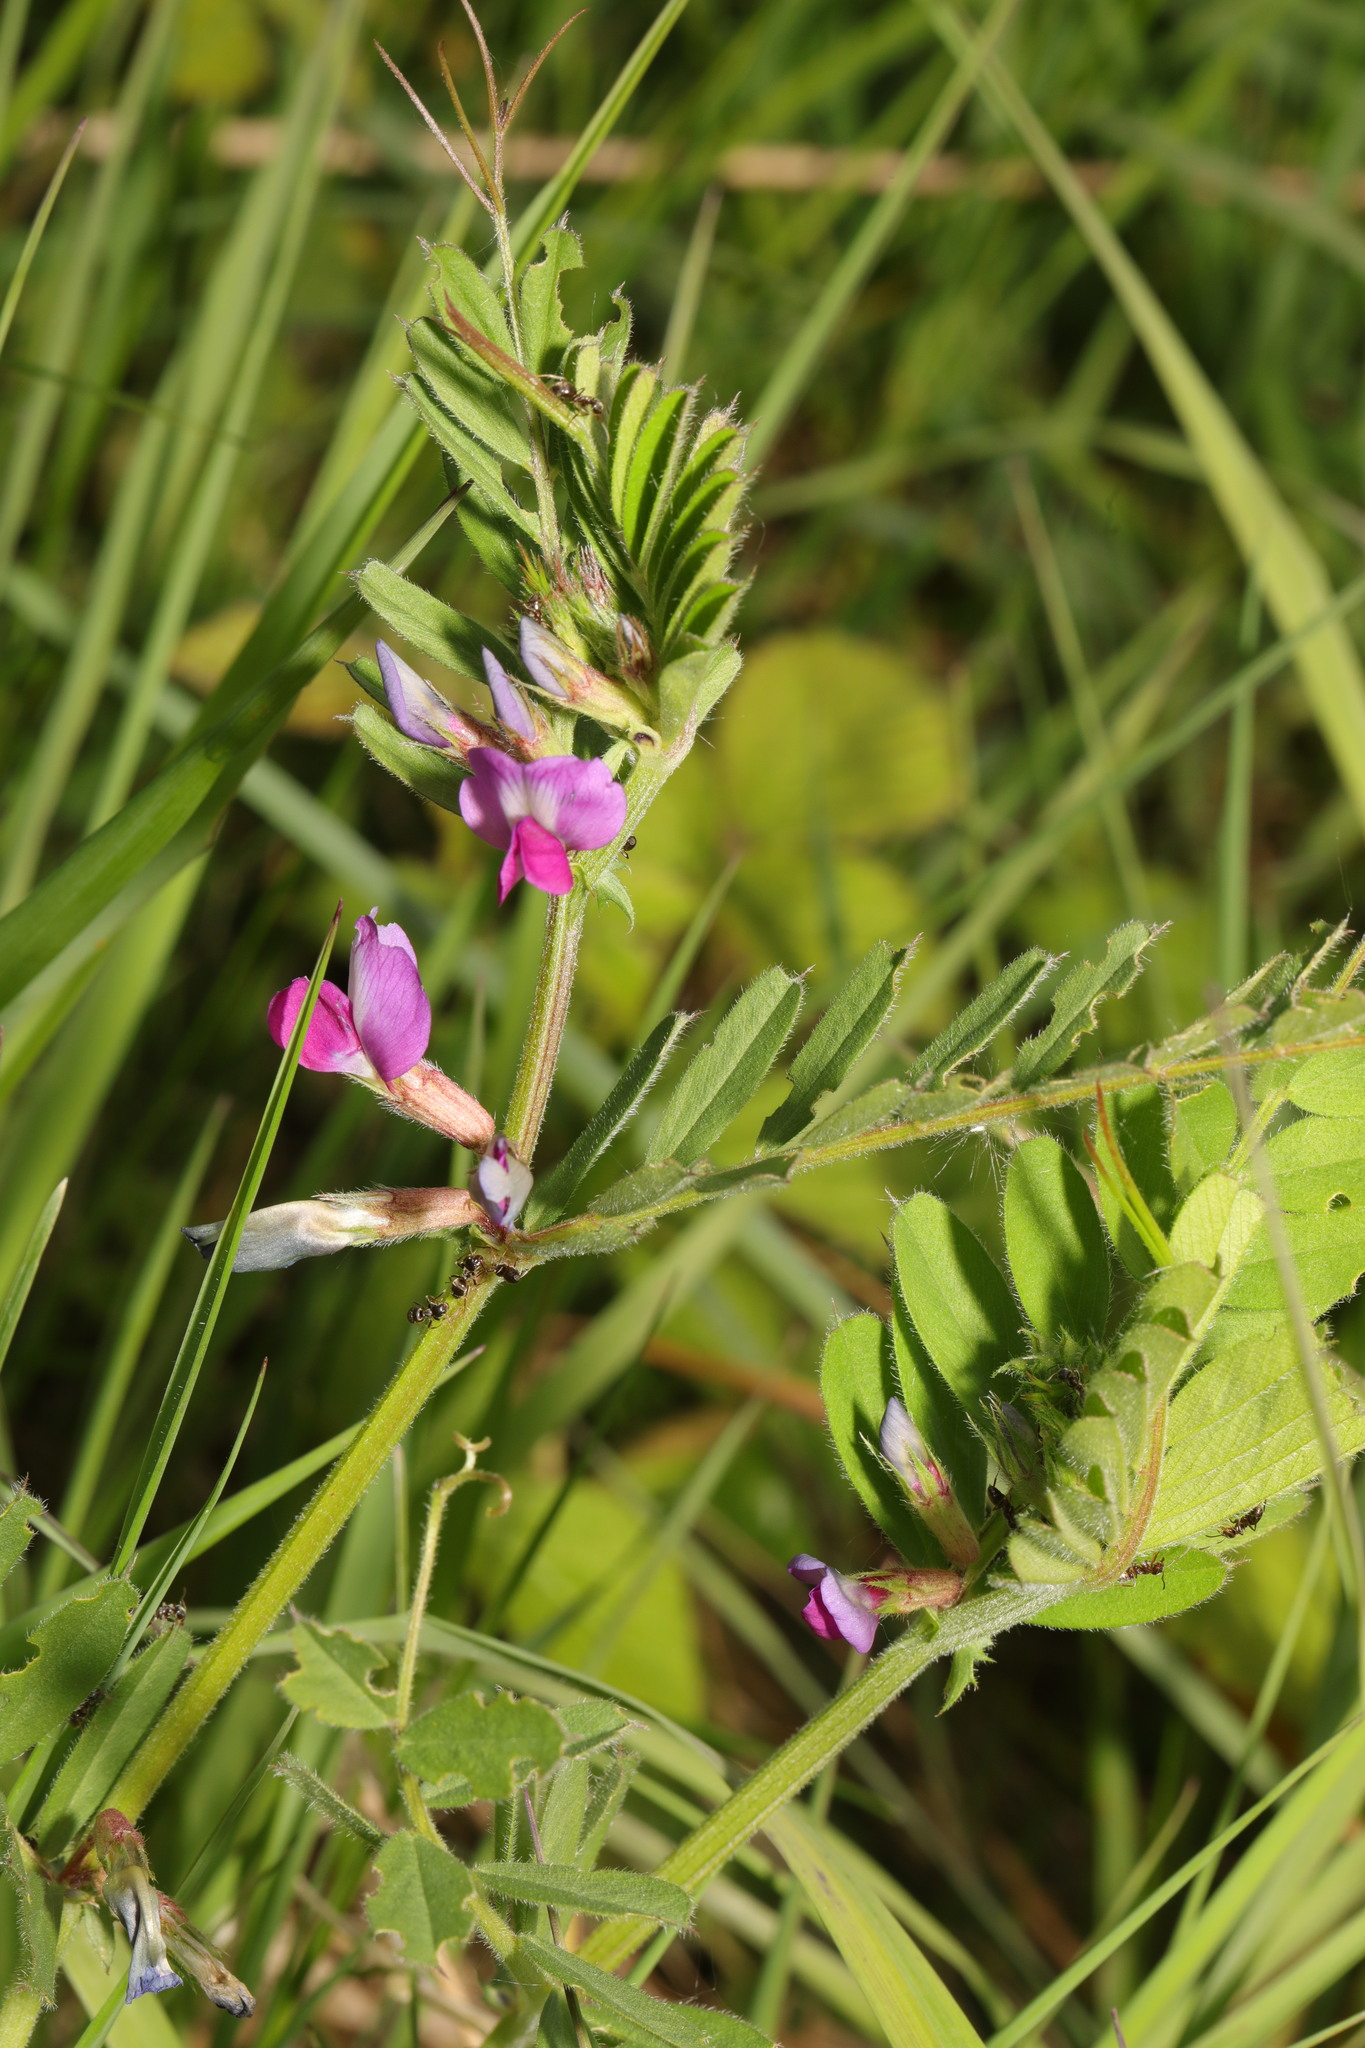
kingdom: Plantae
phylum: Tracheophyta
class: Magnoliopsida
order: Fabales
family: Fabaceae
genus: Vicia
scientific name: Vicia sativa
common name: Garden vetch
